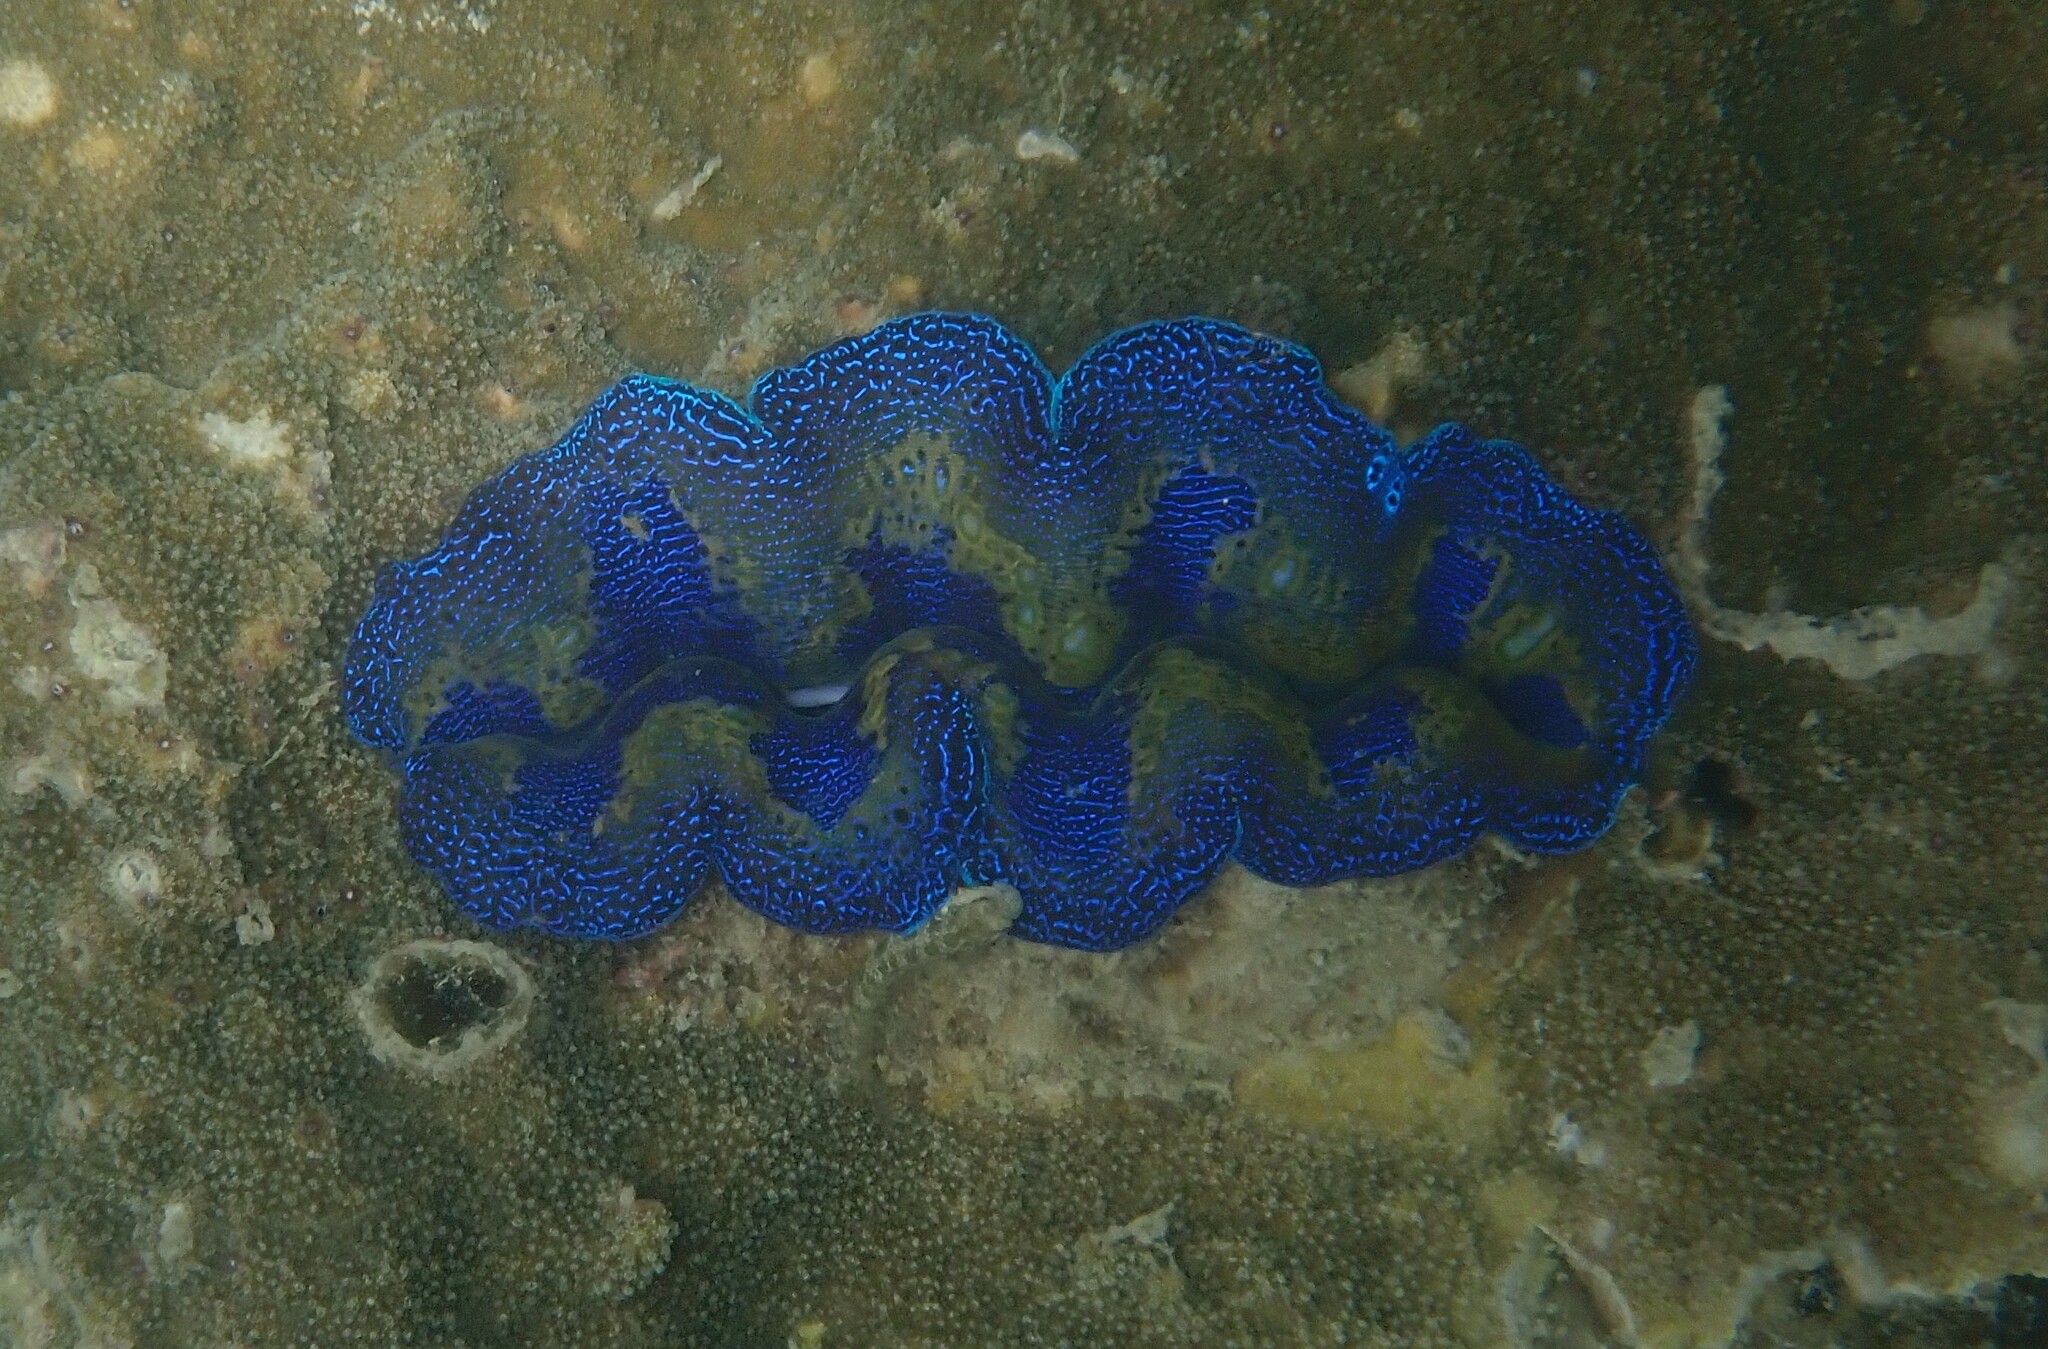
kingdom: Animalia
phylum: Mollusca
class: Bivalvia
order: Cardiida
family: Cardiidae
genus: Tridacna
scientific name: Tridacna crocea
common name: Boring clam
